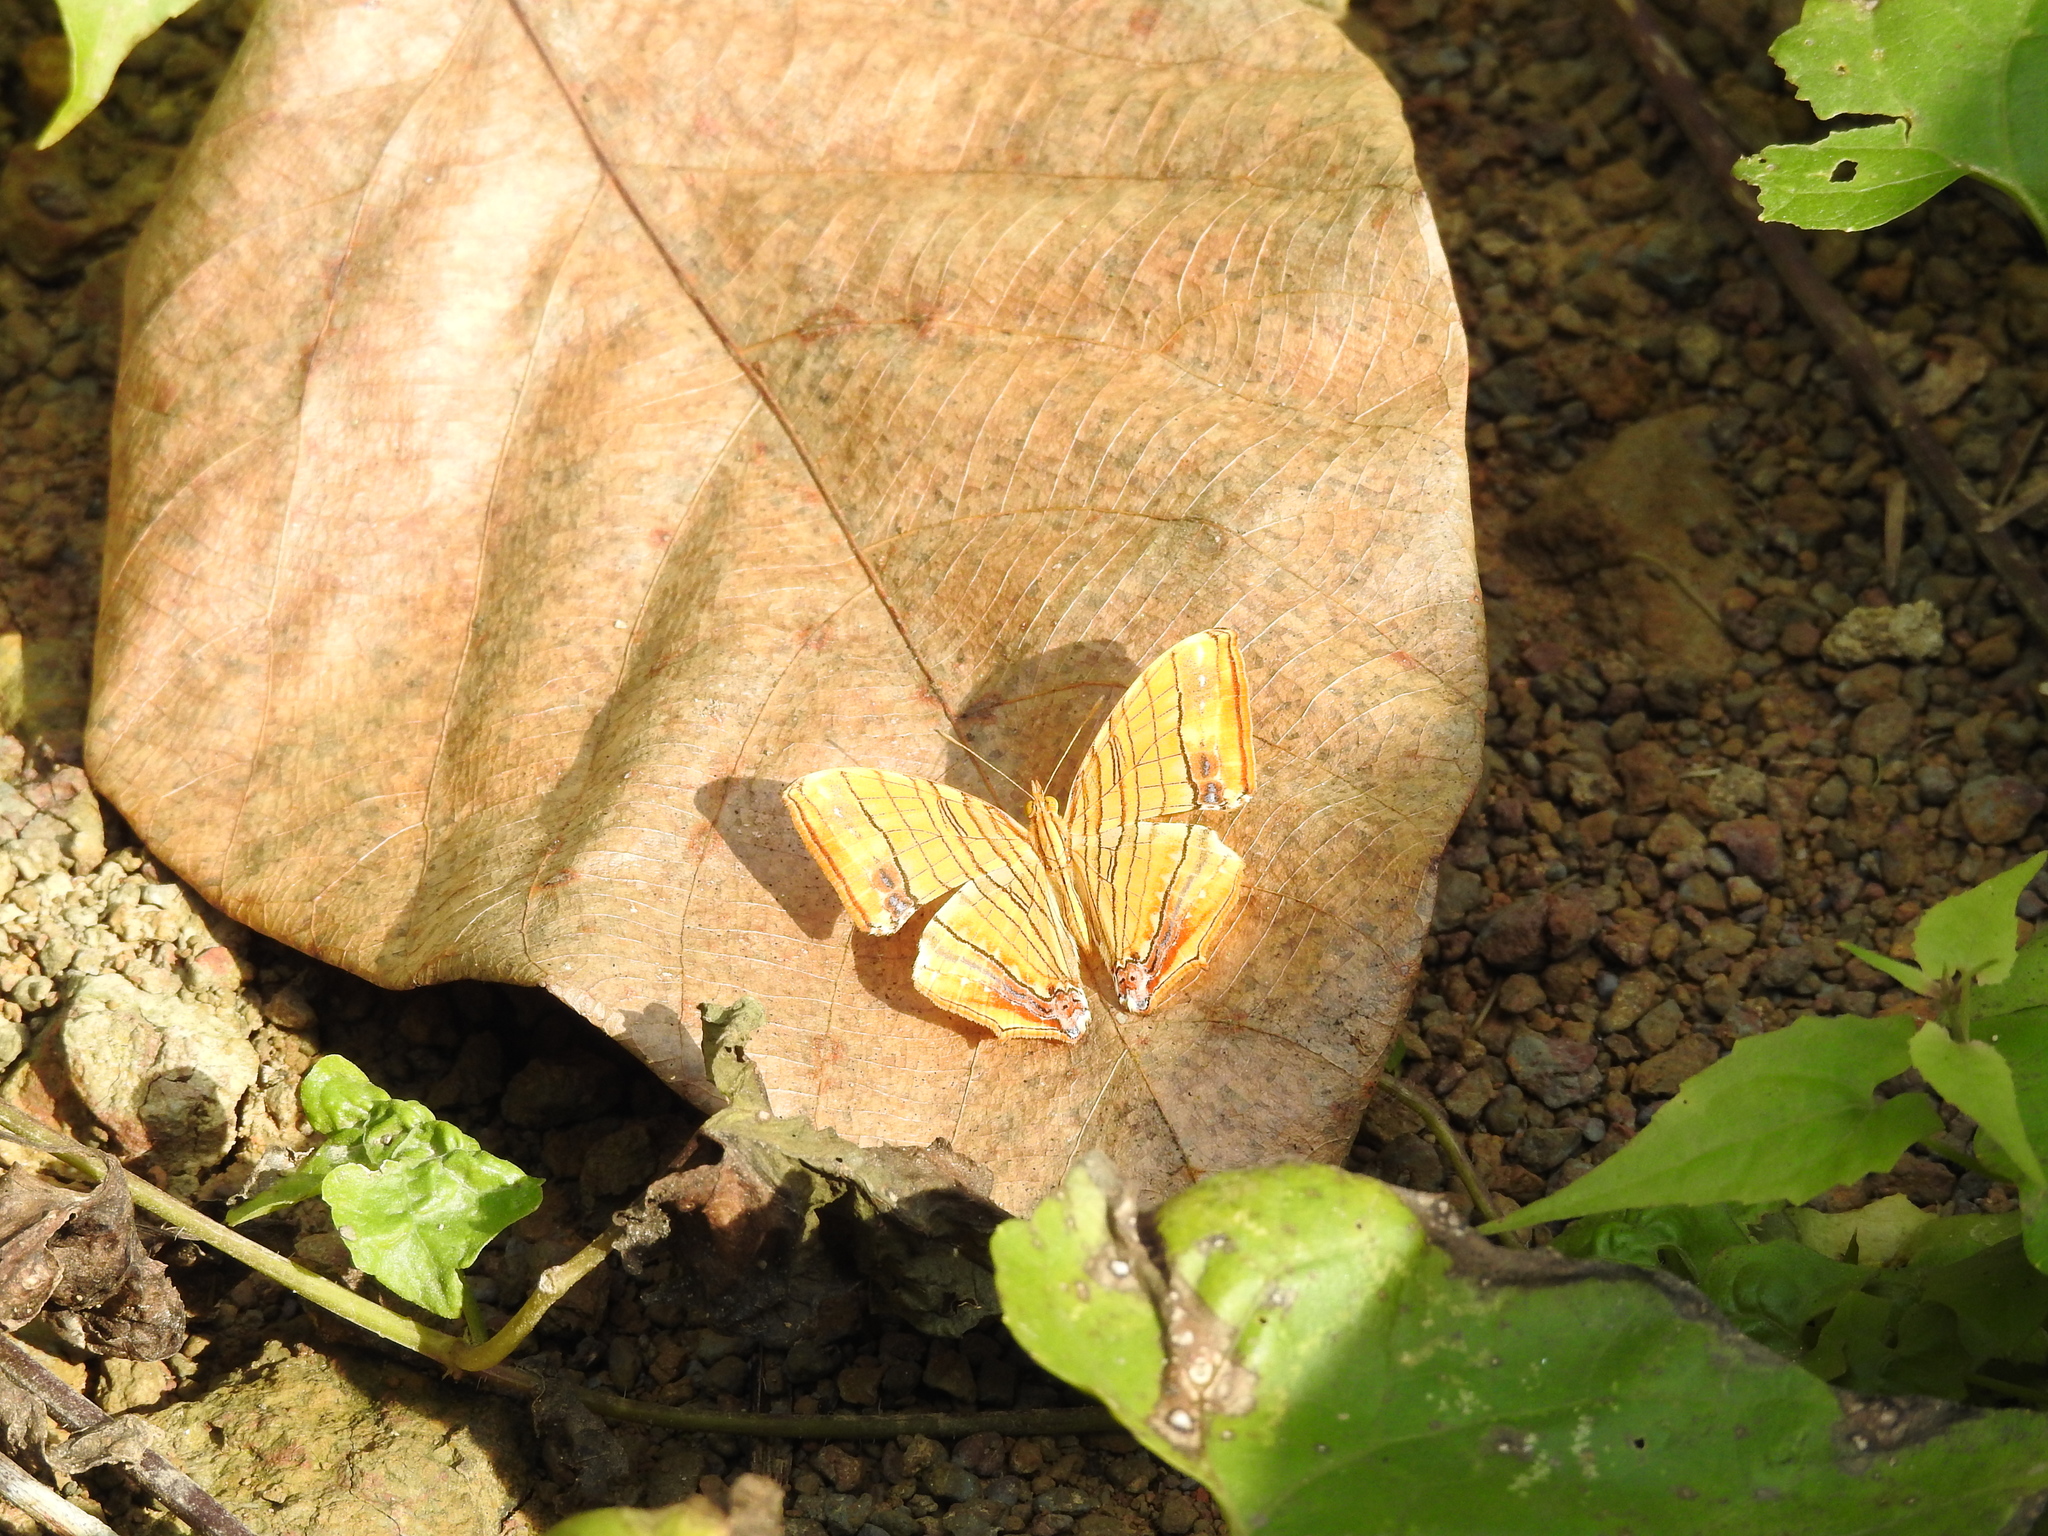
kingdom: Animalia
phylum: Arthropoda
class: Insecta
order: Lepidoptera
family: Nymphalidae
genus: Chersonesia
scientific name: Chersonesia risa
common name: Common maplet
